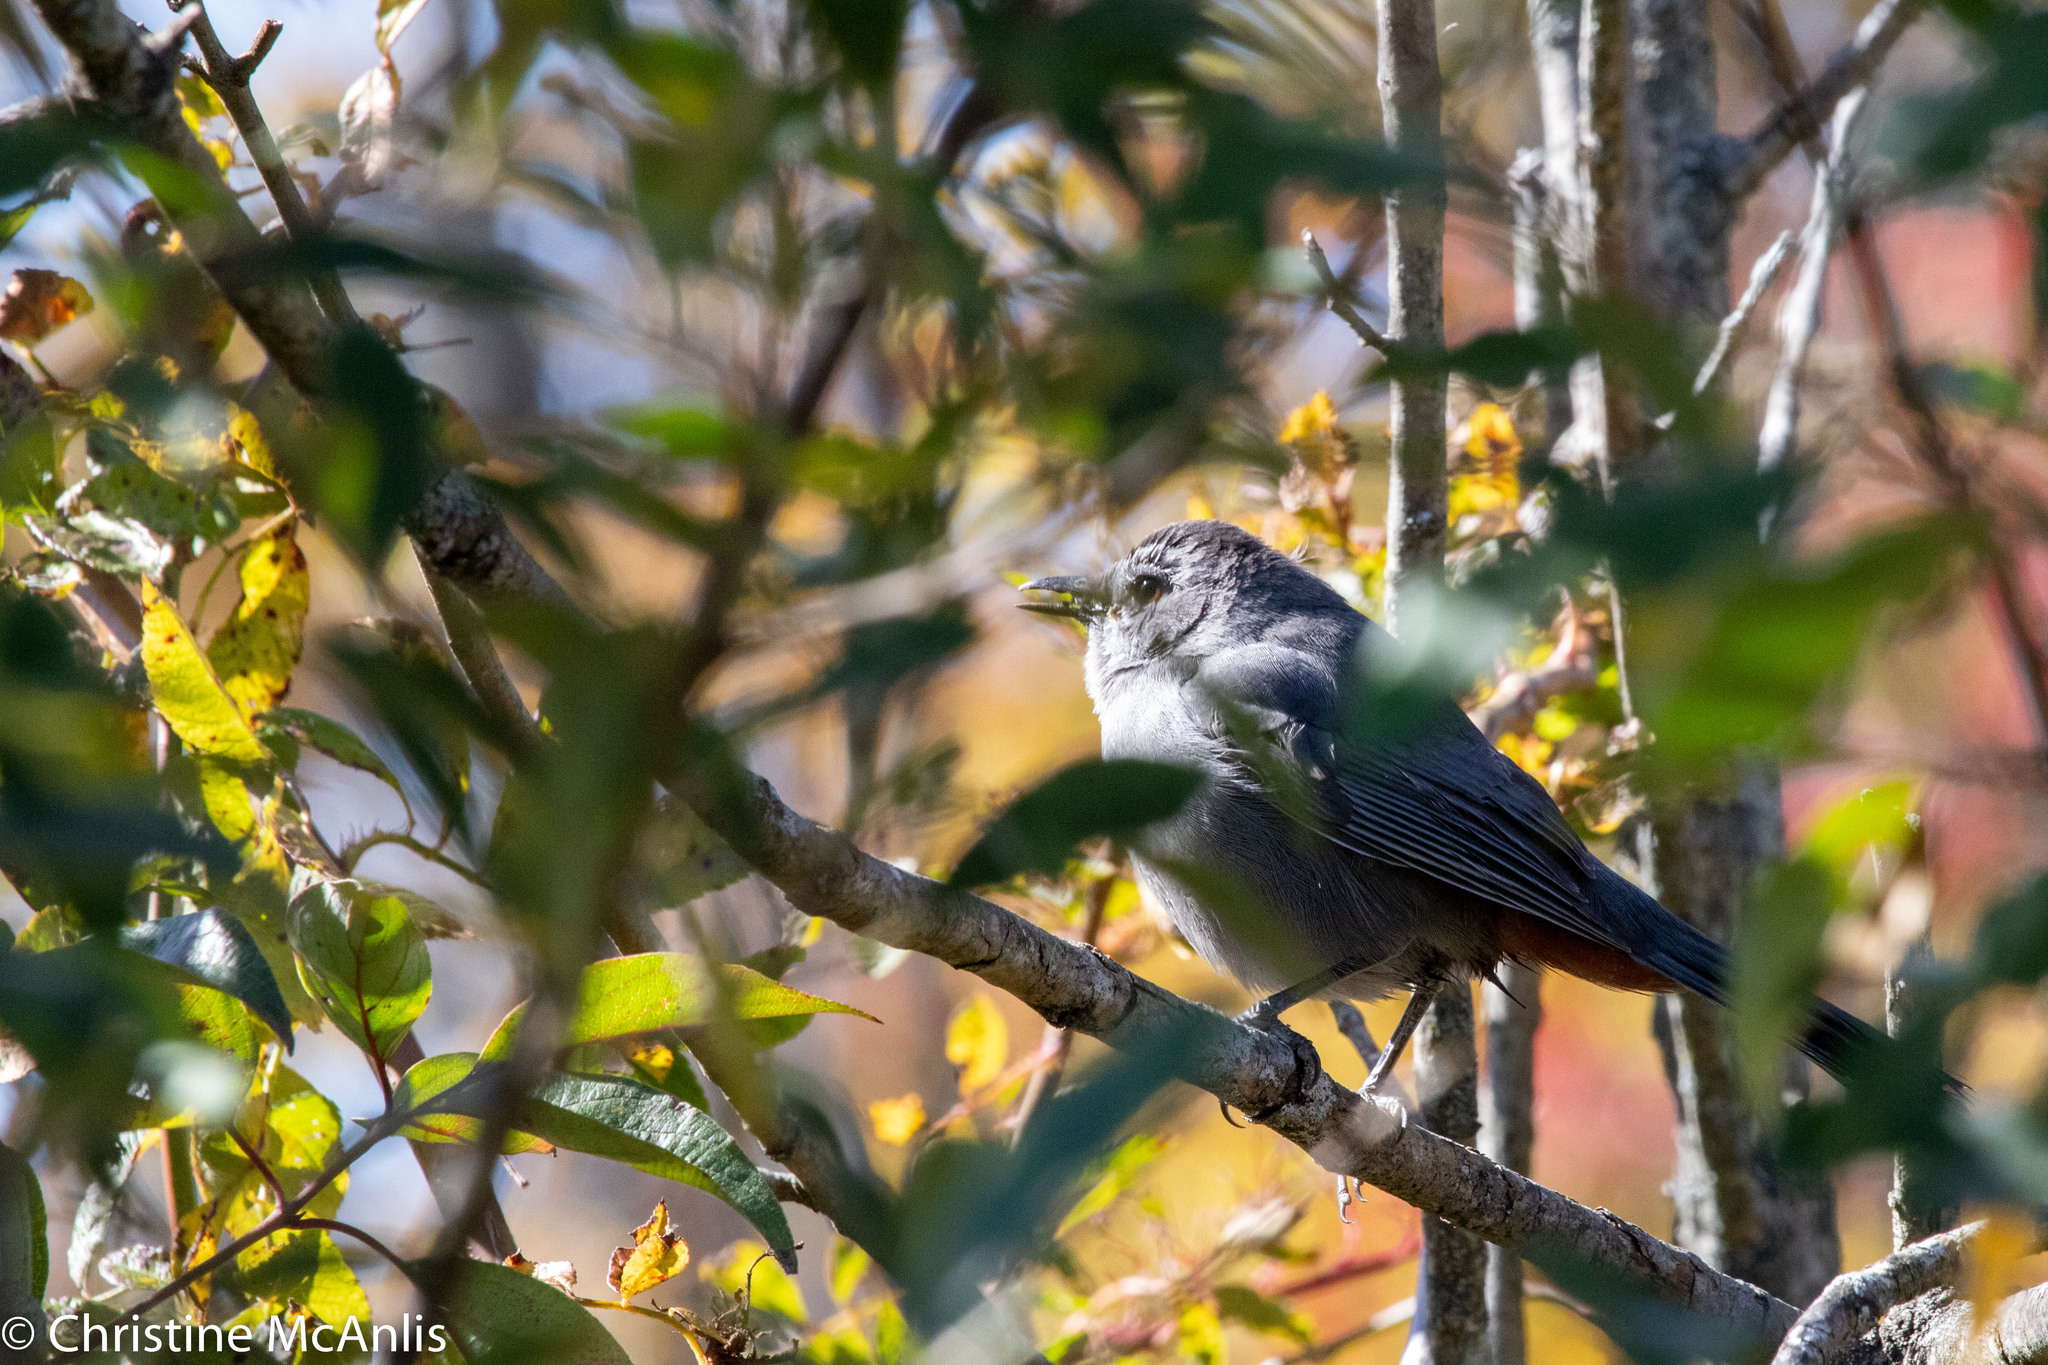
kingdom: Animalia
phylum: Chordata
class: Aves
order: Passeriformes
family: Mimidae
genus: Dumetella
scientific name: Dumetella carolinensis
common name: Gray catbird
